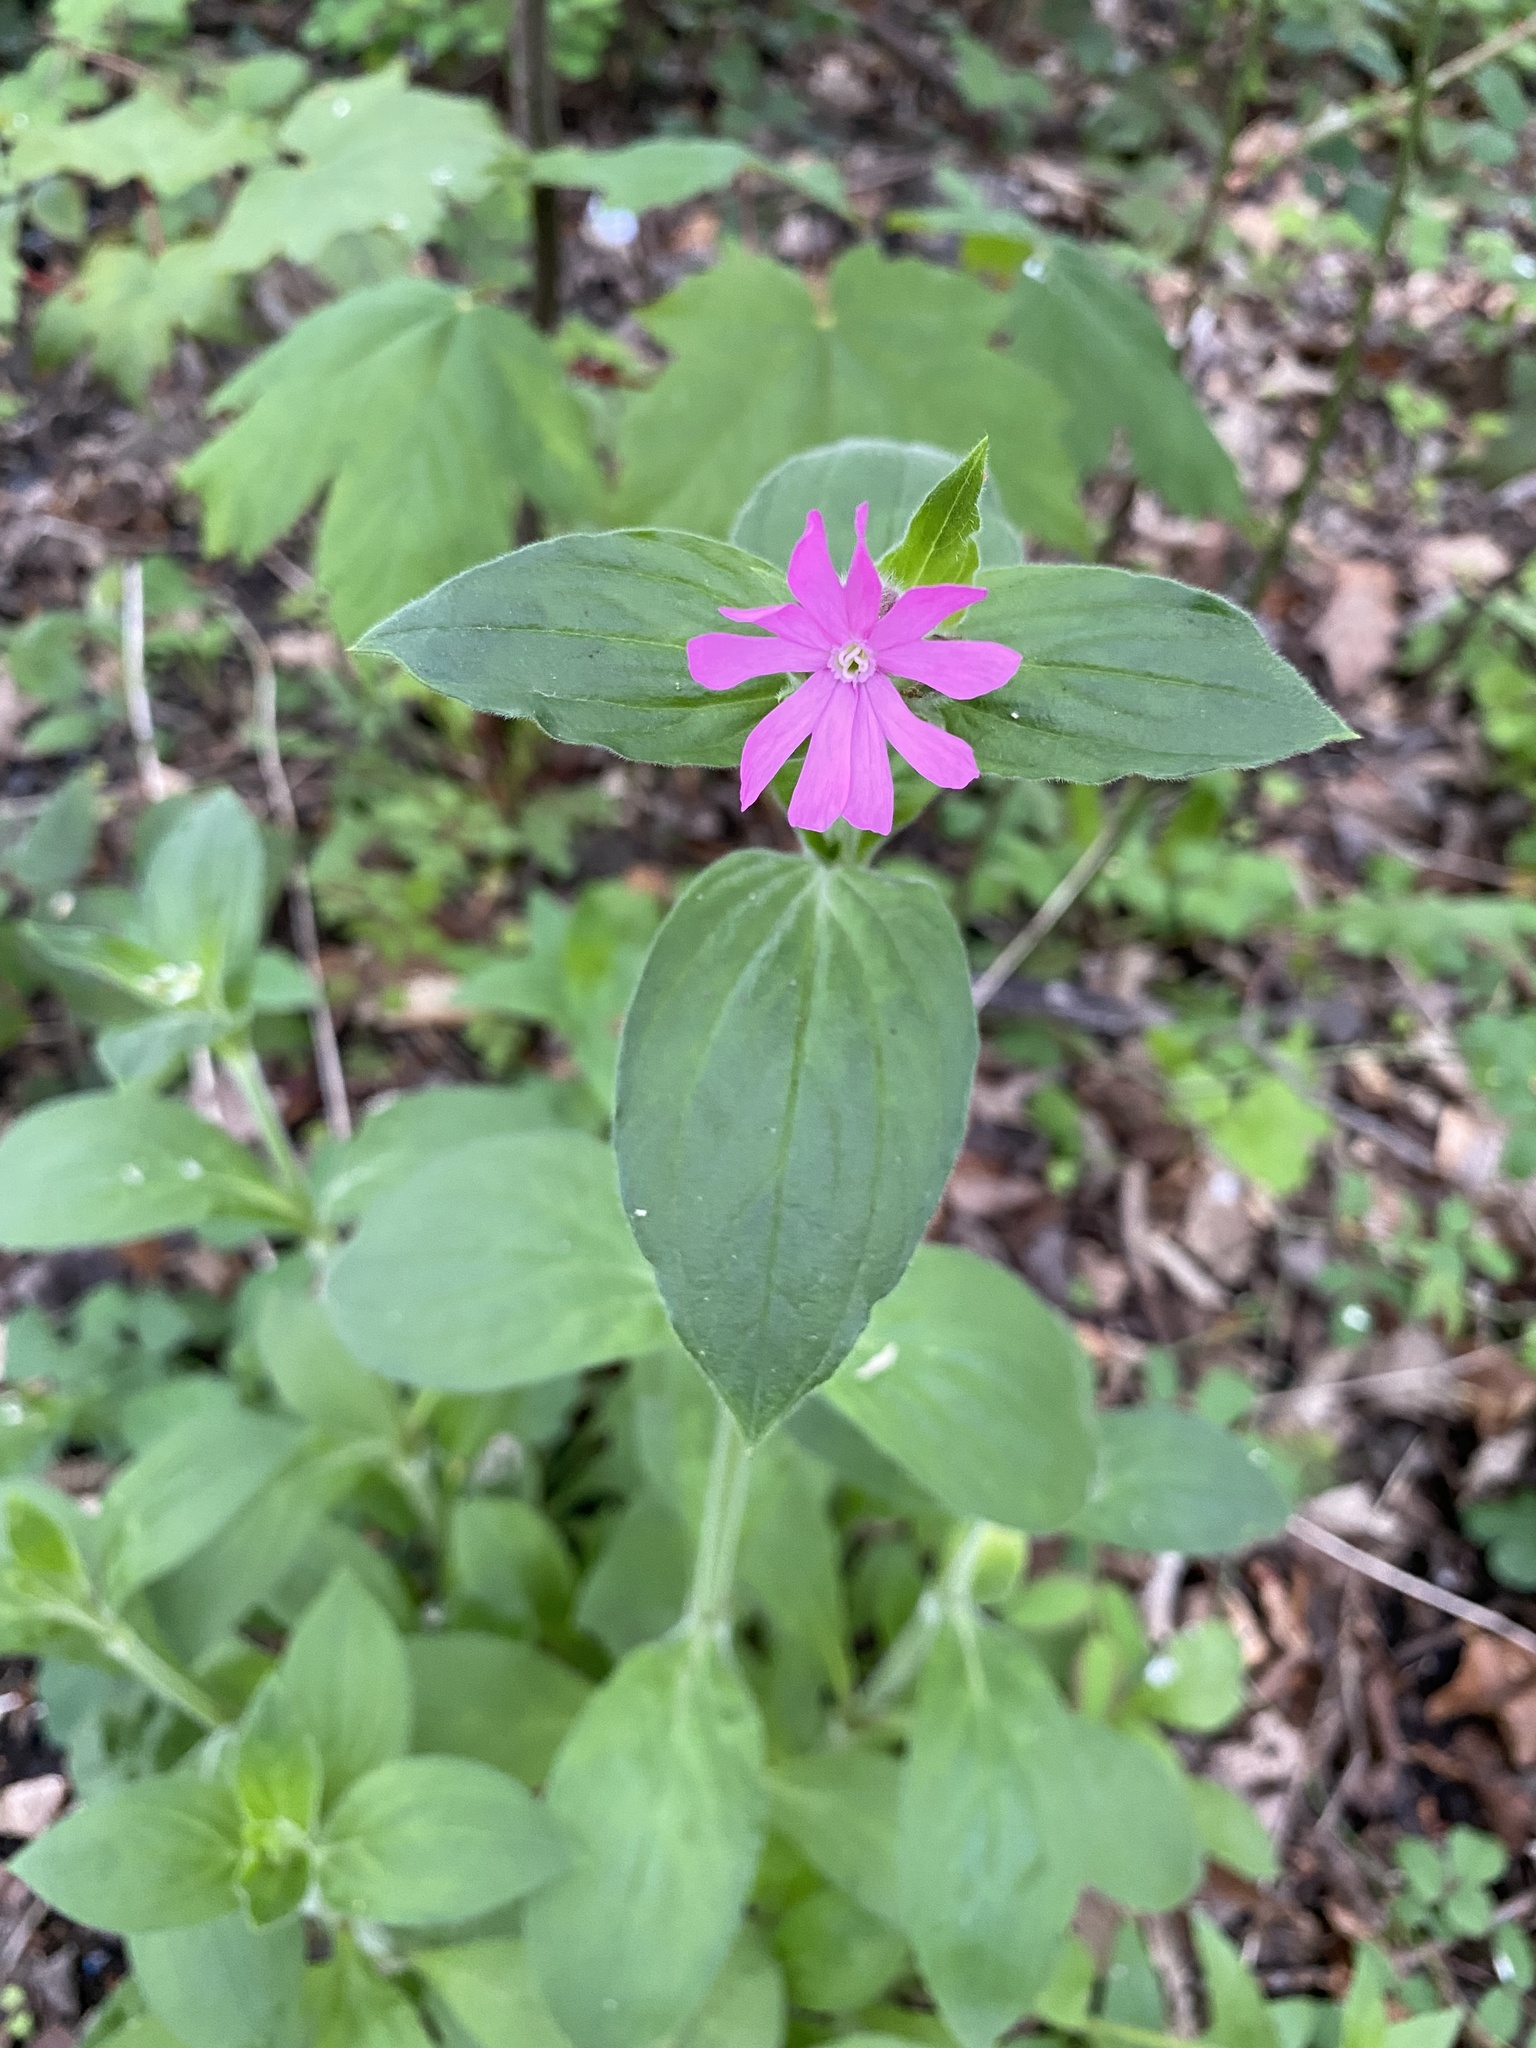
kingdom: Plantae
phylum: Tracheophyta
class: Magnoliopsida
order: Caryophyllales
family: Caryophyllaceae
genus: Silene
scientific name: Silene dioica
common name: Red campion
